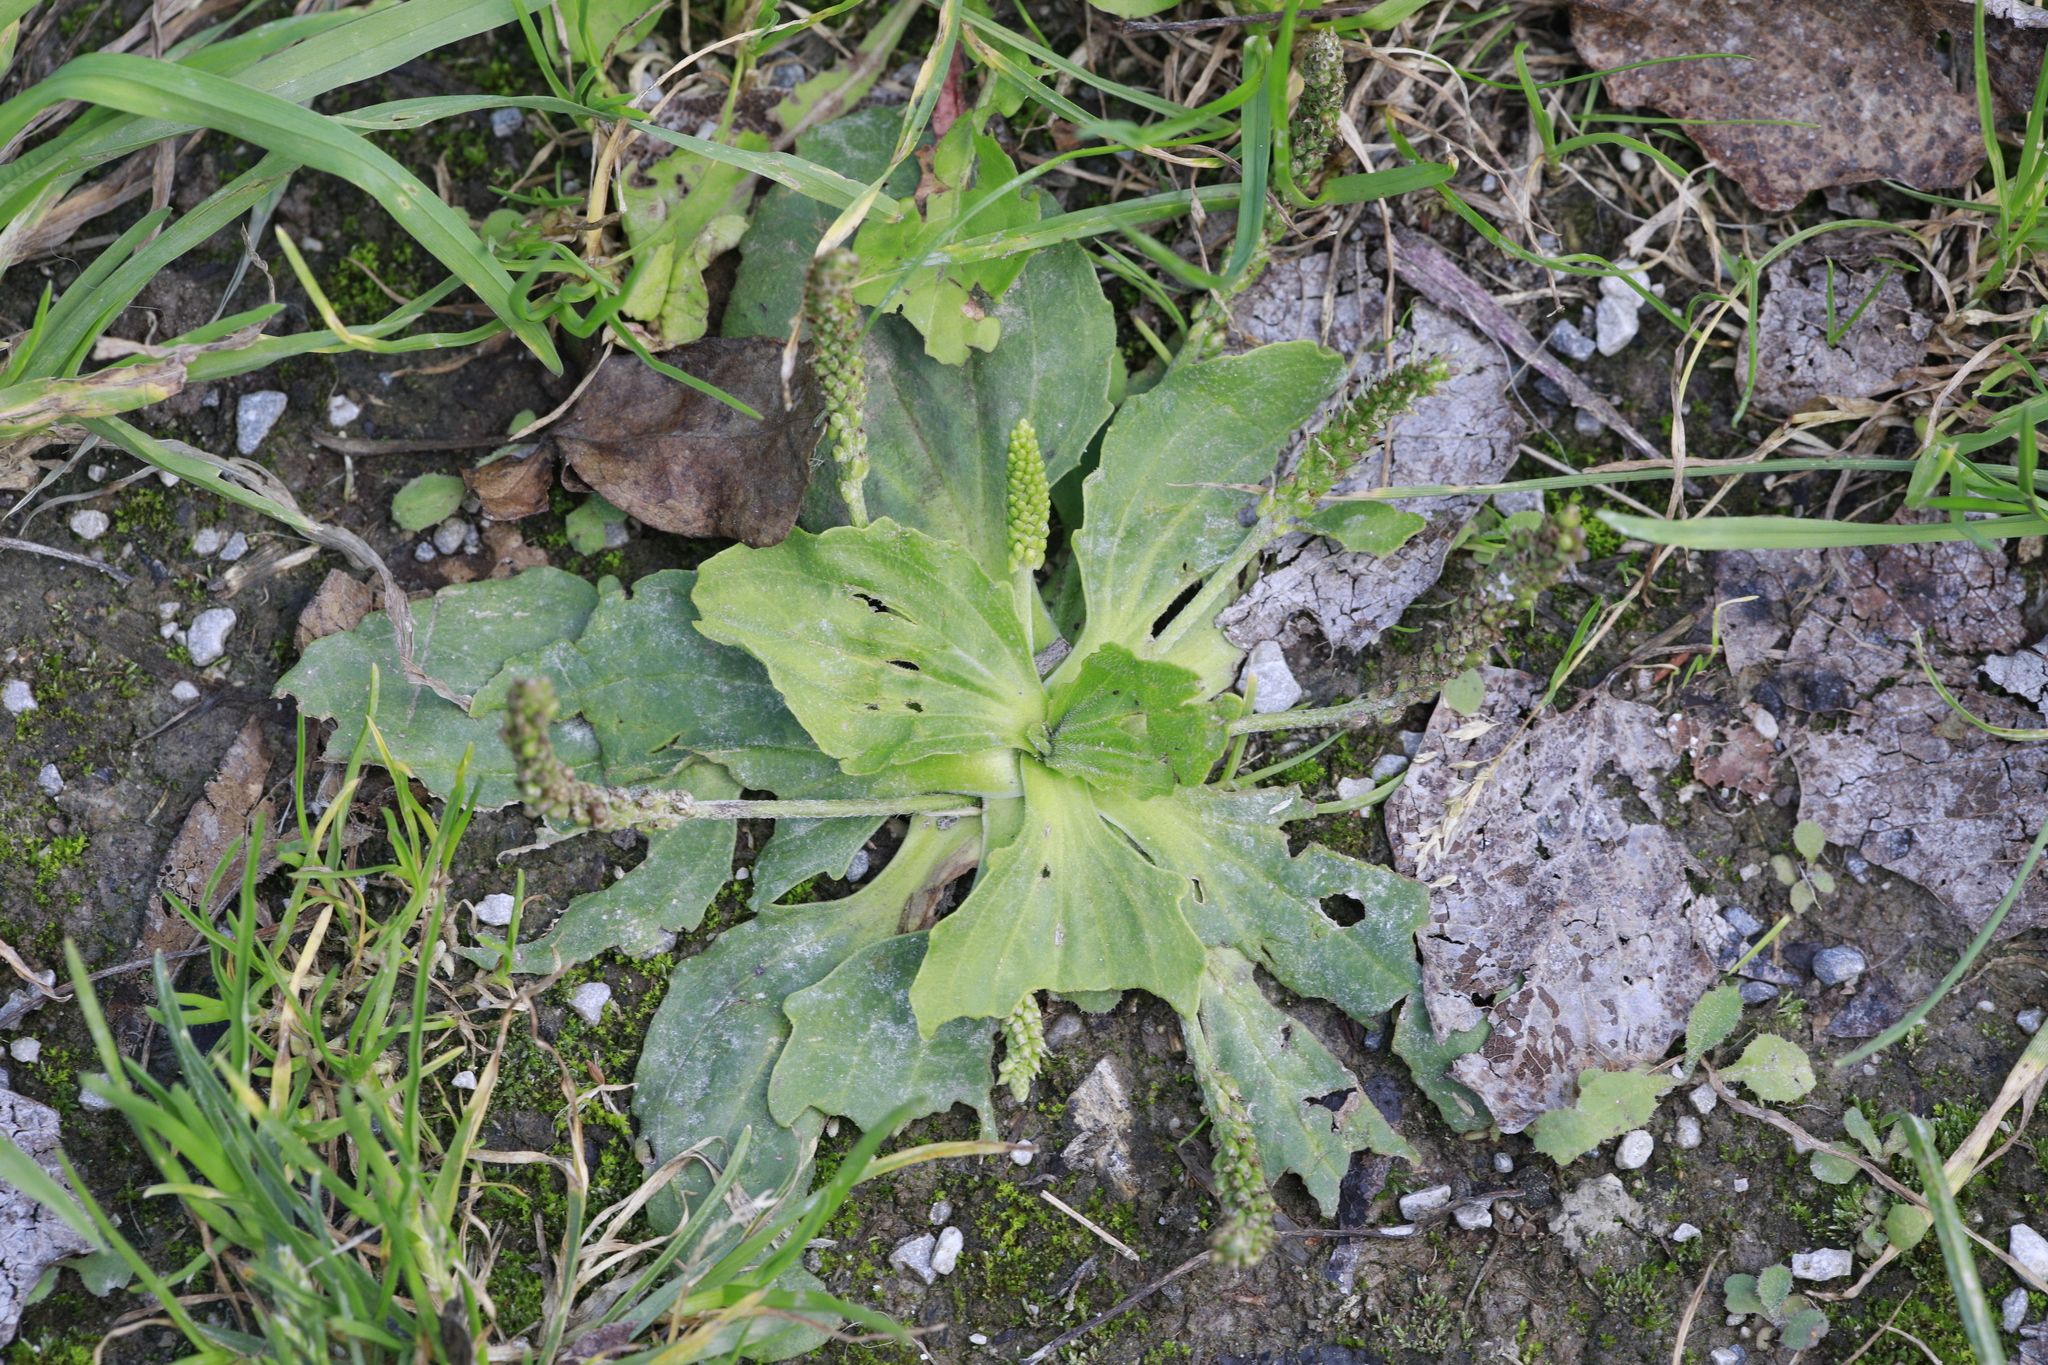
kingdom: Plantae
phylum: Tracheophyta
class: Magnoliopsida
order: Lamiales
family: Plantaginaceae
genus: Plantago
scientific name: Plantago major
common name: Common plantain
